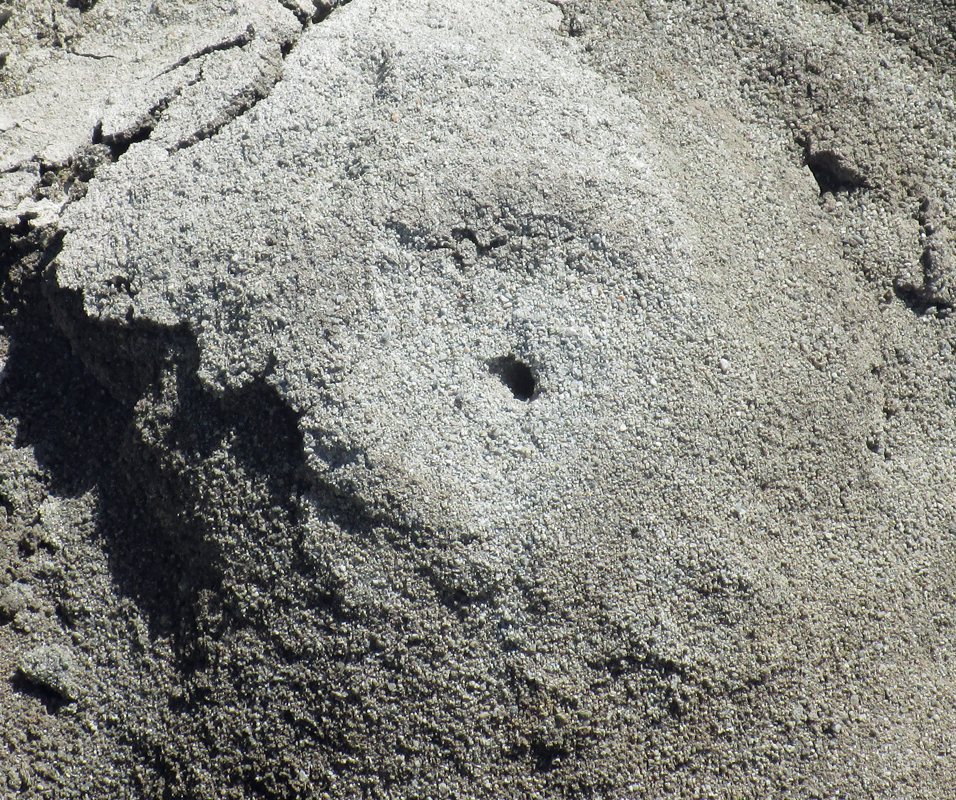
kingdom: Animalia
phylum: Arthropoda
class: Malacostraca
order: Decapoda
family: Ocypodidae
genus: Ocypode
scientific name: Ocypode occidentalis
